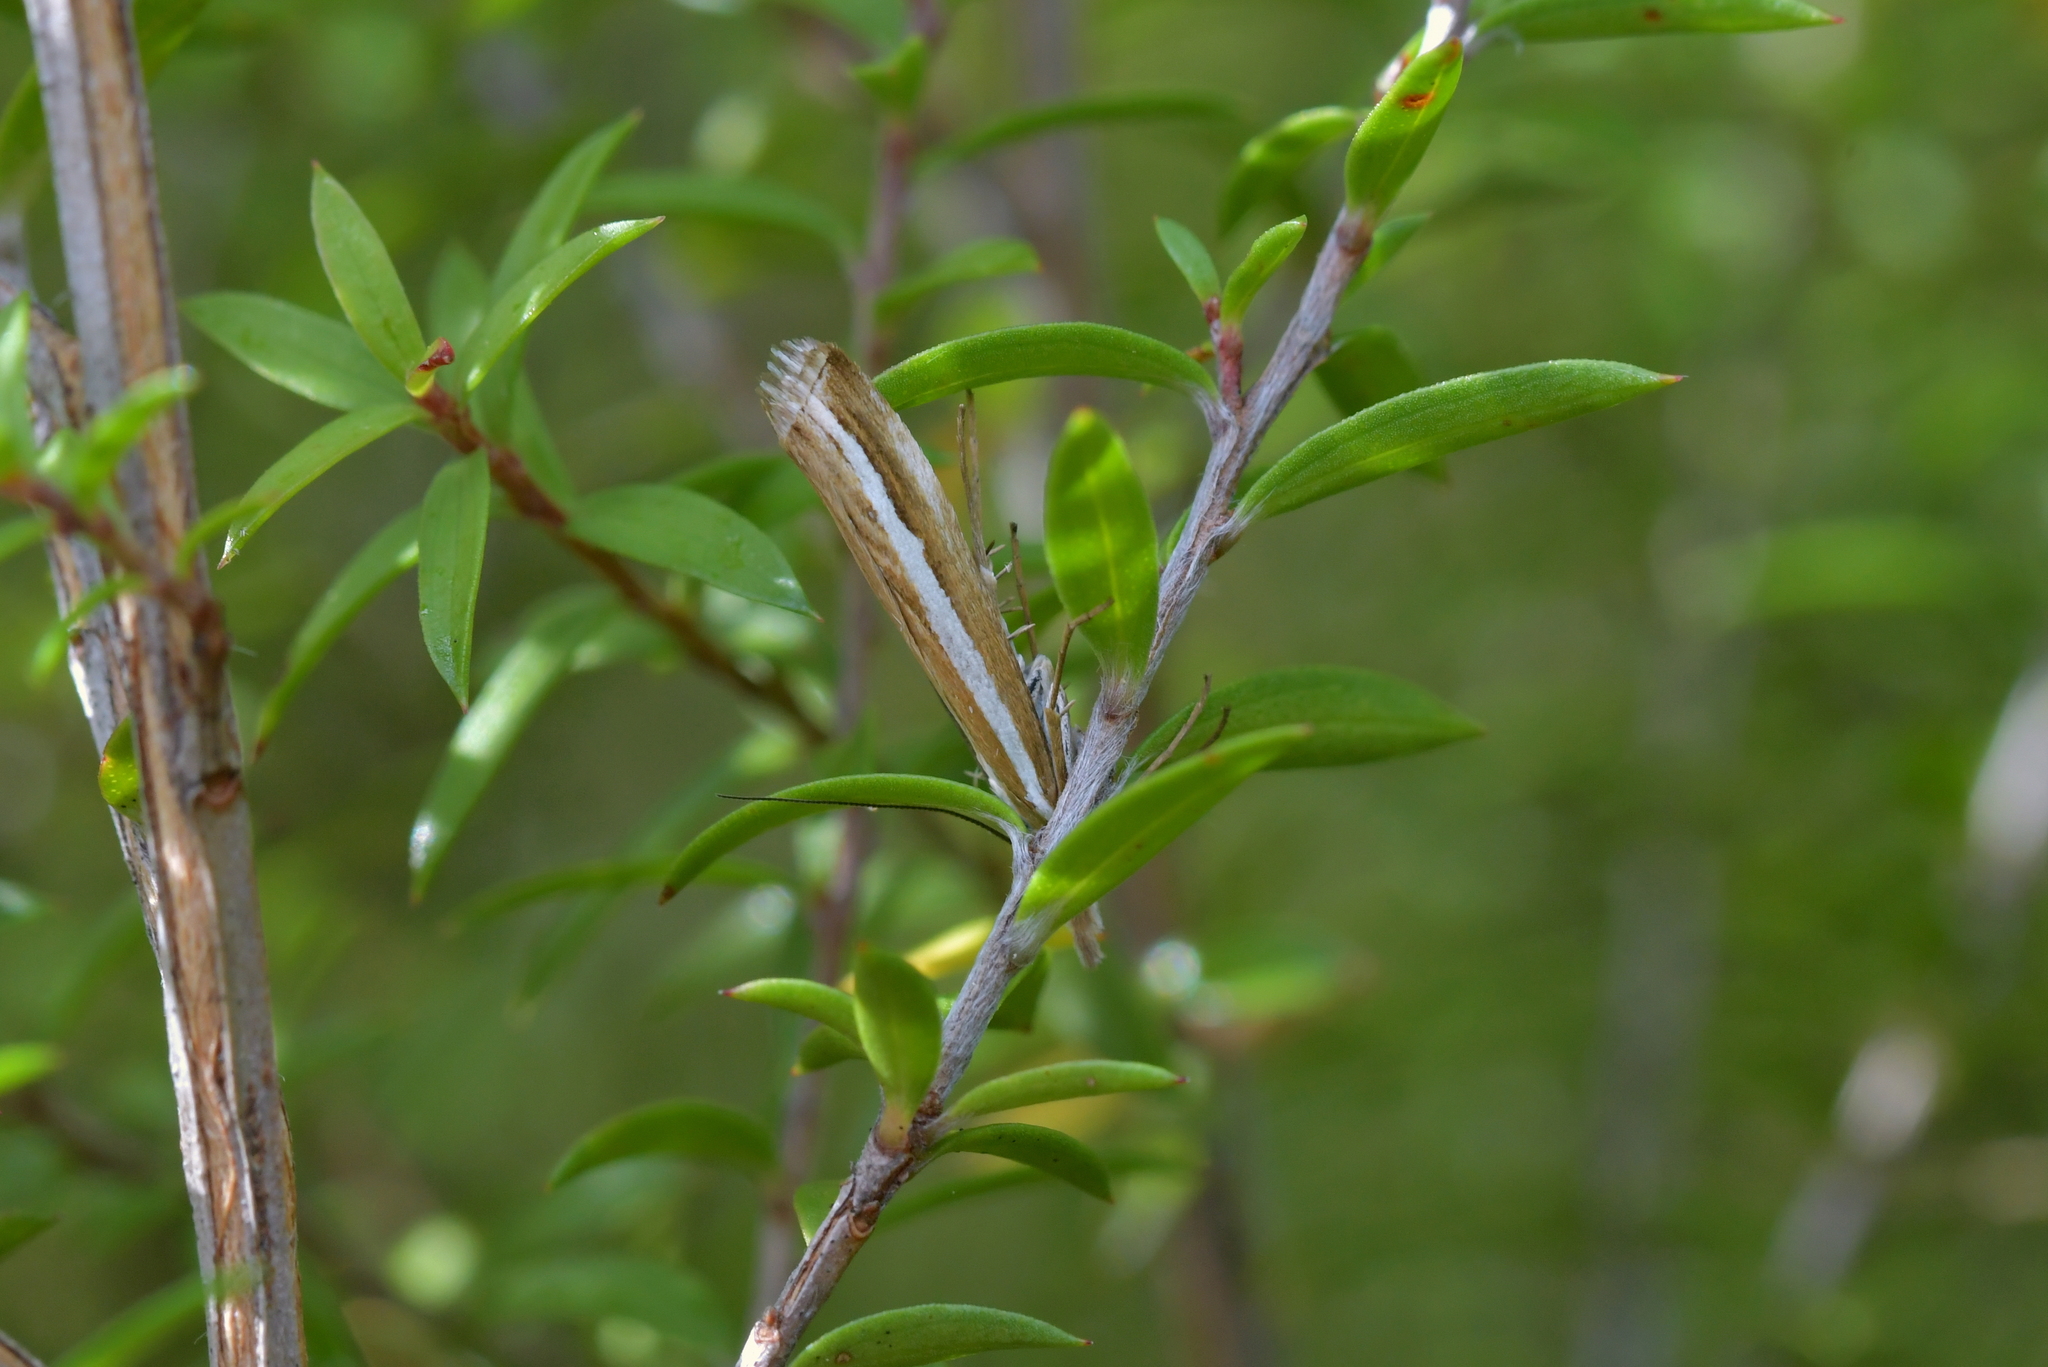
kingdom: Animalia
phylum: Arthropoda
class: Insecta
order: Lepidoptera
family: Crambidae
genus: Orocrambus
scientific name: Orocrambus vittellus
